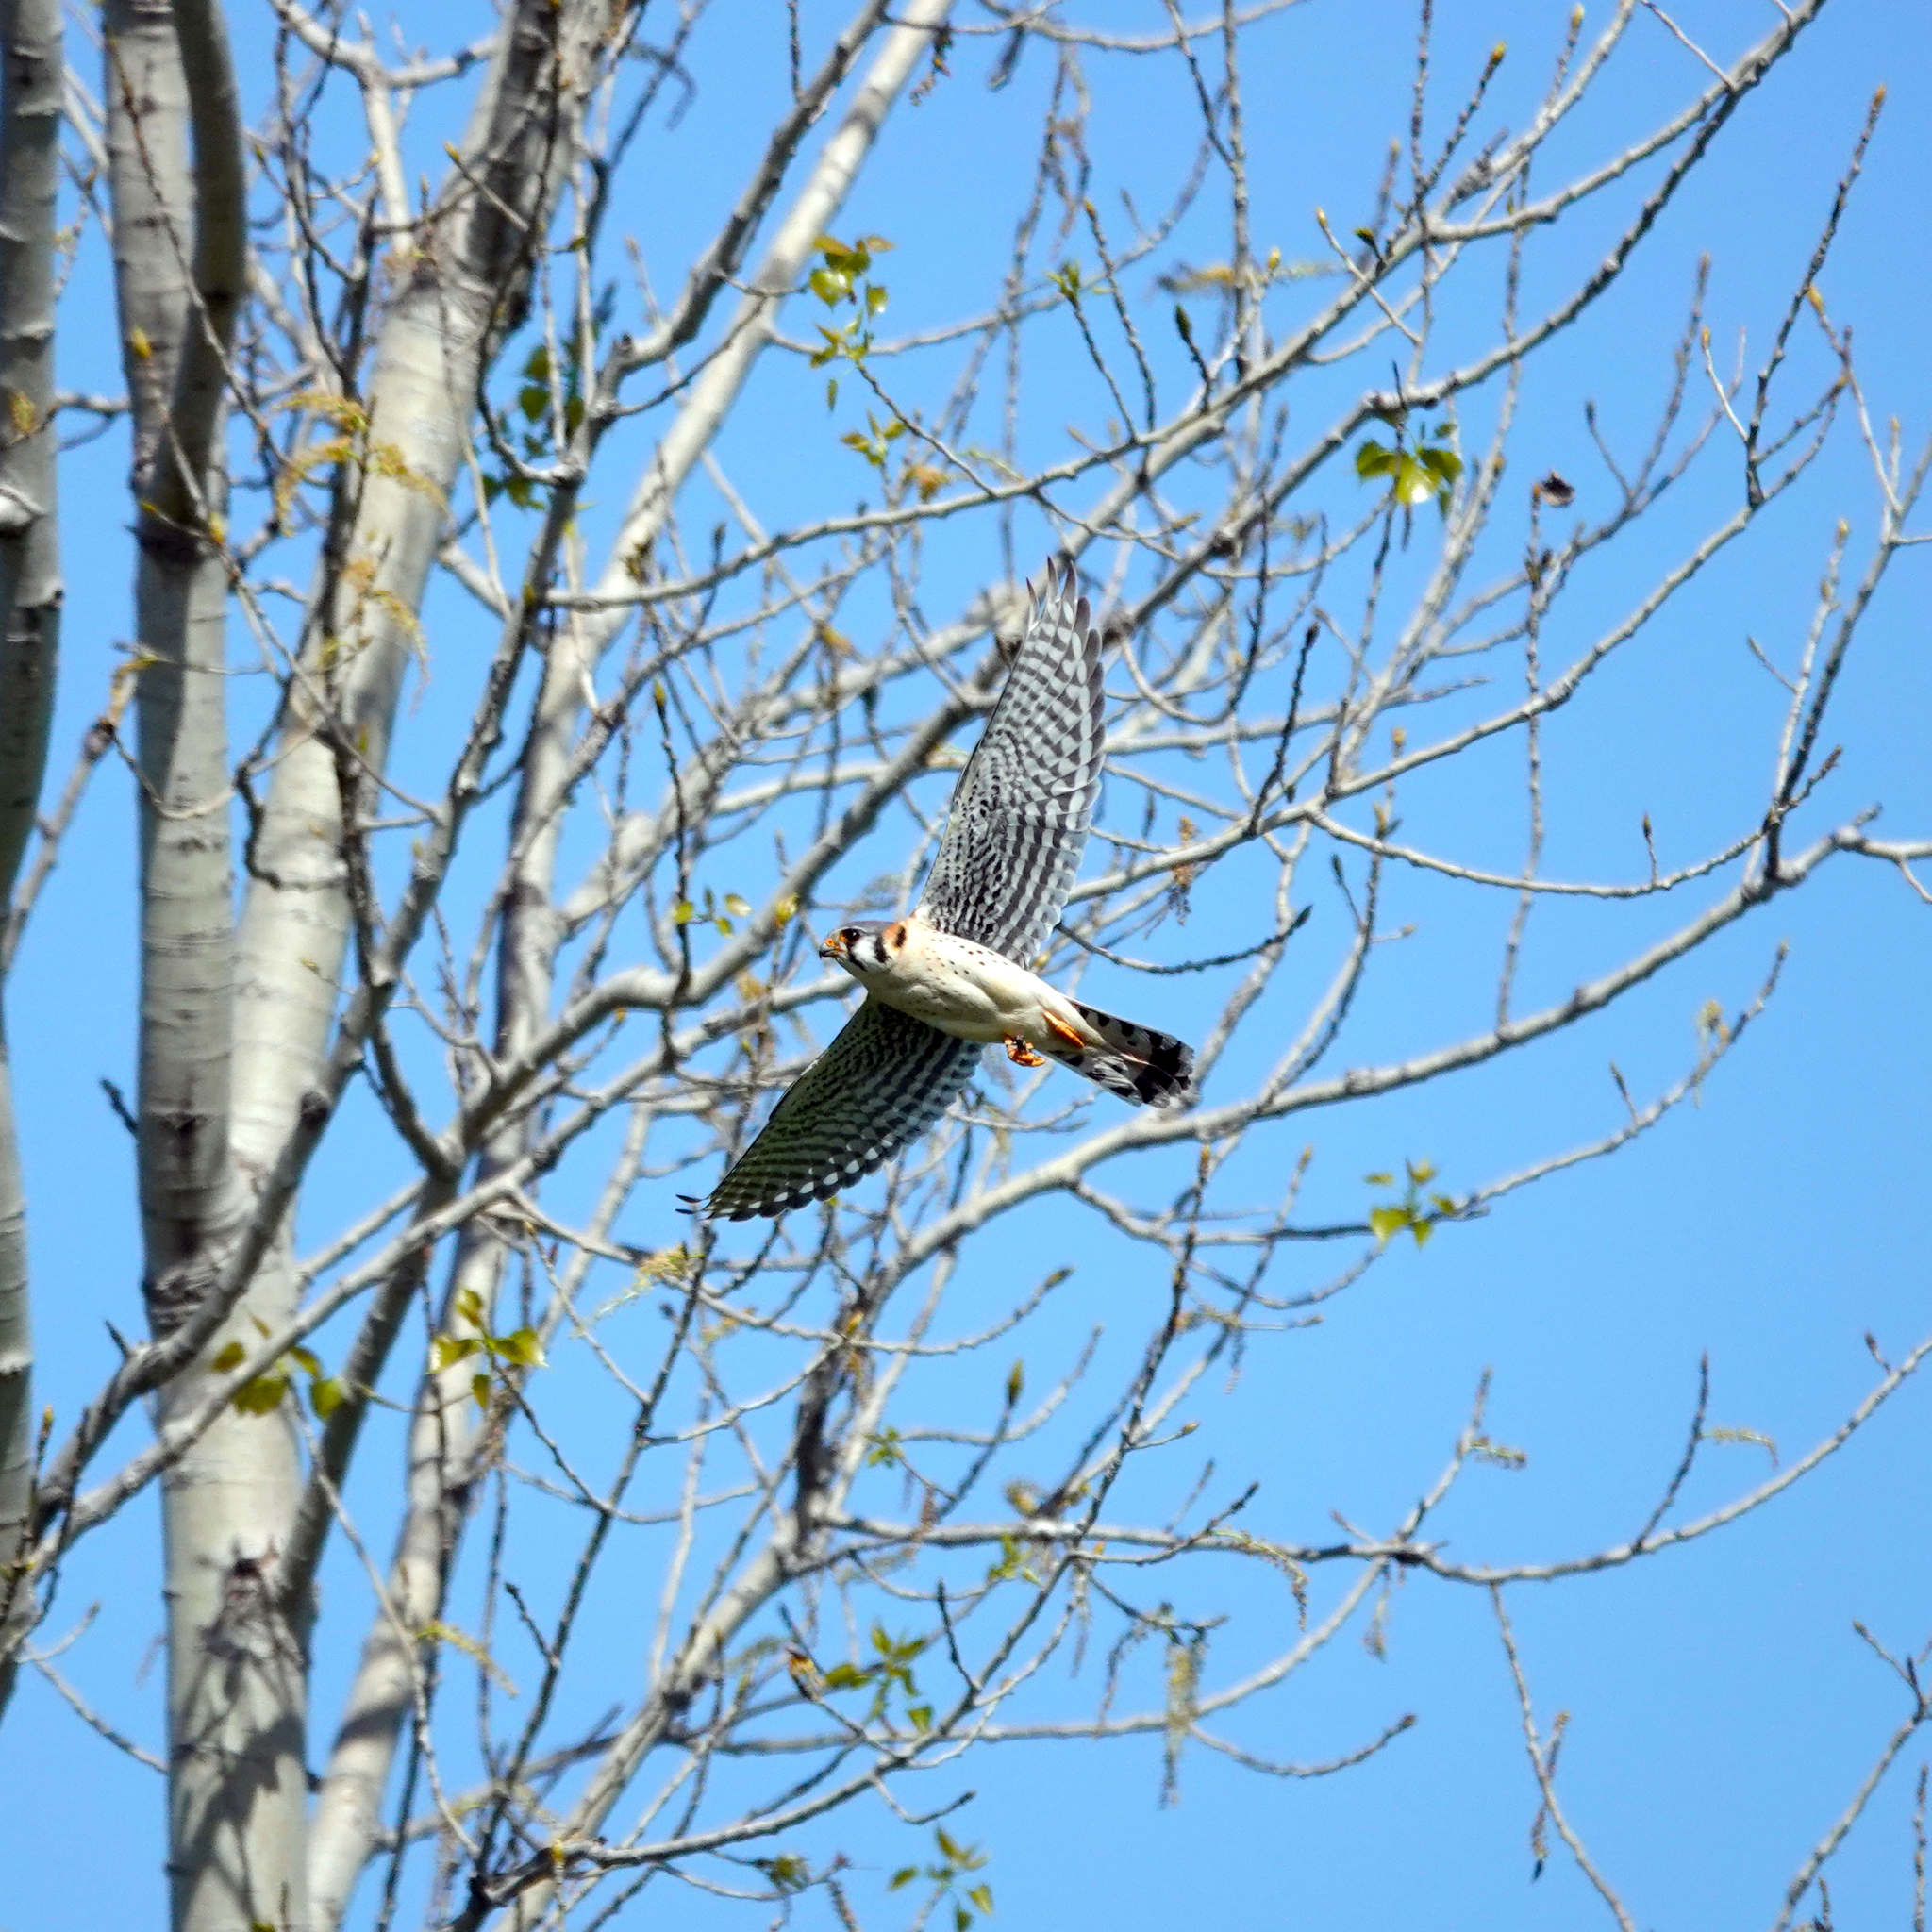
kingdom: Animalia
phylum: Chordata
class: Aves
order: Falconiformes
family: Falconidae
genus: Falco
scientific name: Falco sparverius
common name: American kestrel
